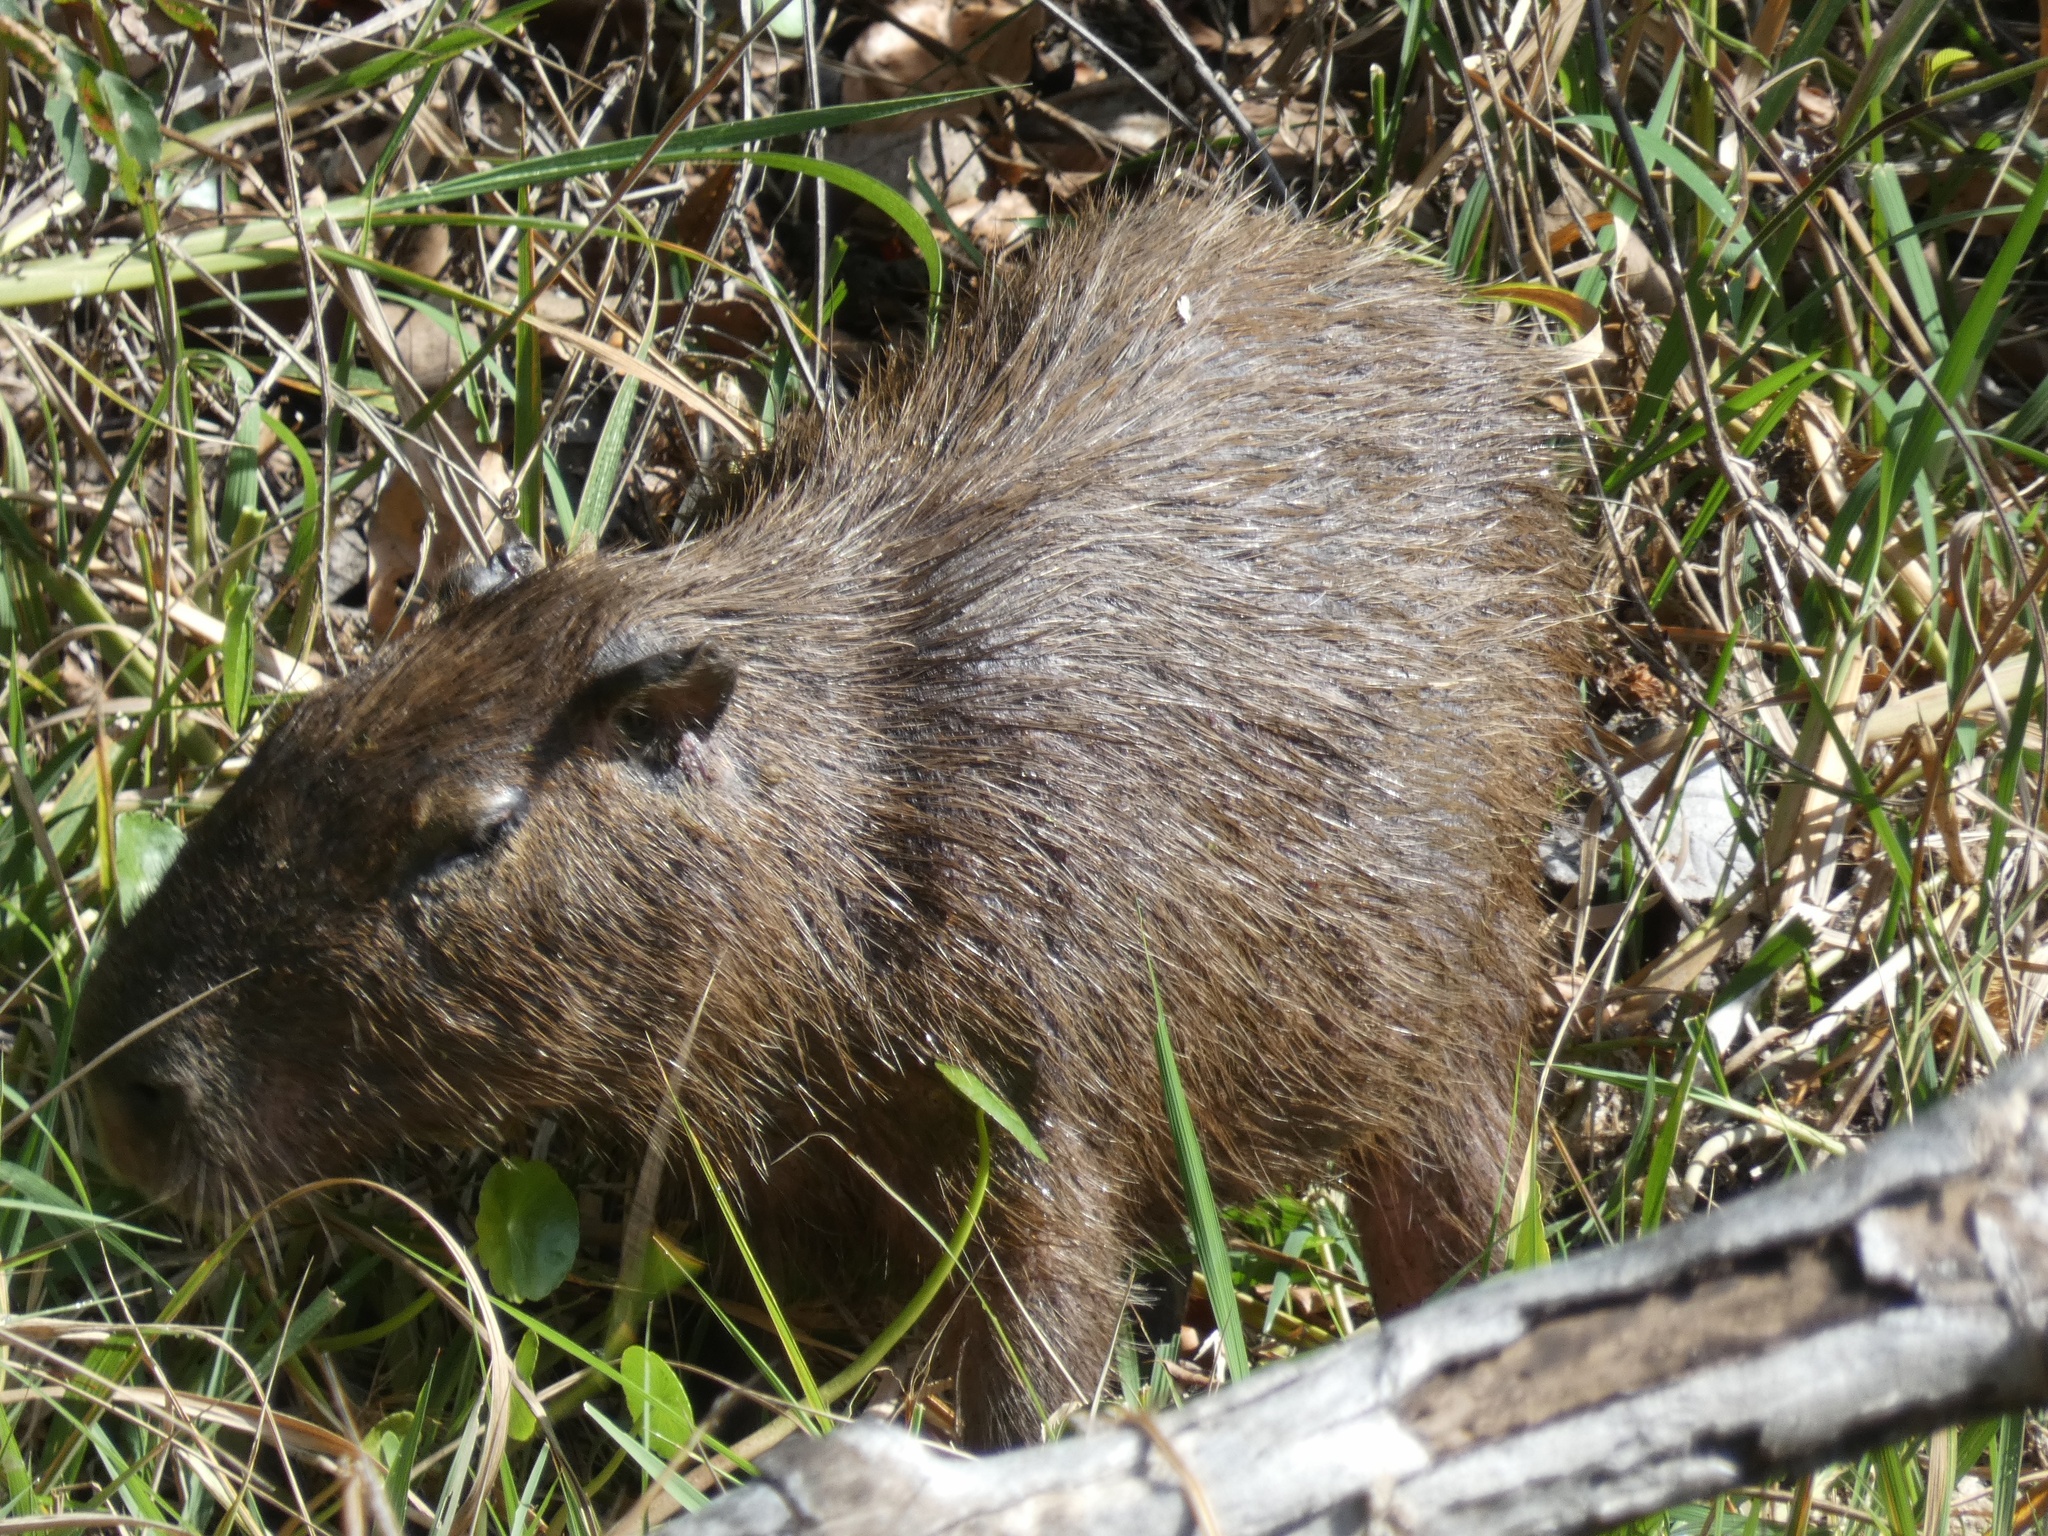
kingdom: Animalia
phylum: Chordata
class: Mammalia
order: Rodentia
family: Caviidae
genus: Hydrochoerus
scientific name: Hydrochoerus isthmius
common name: Lesser capybara
